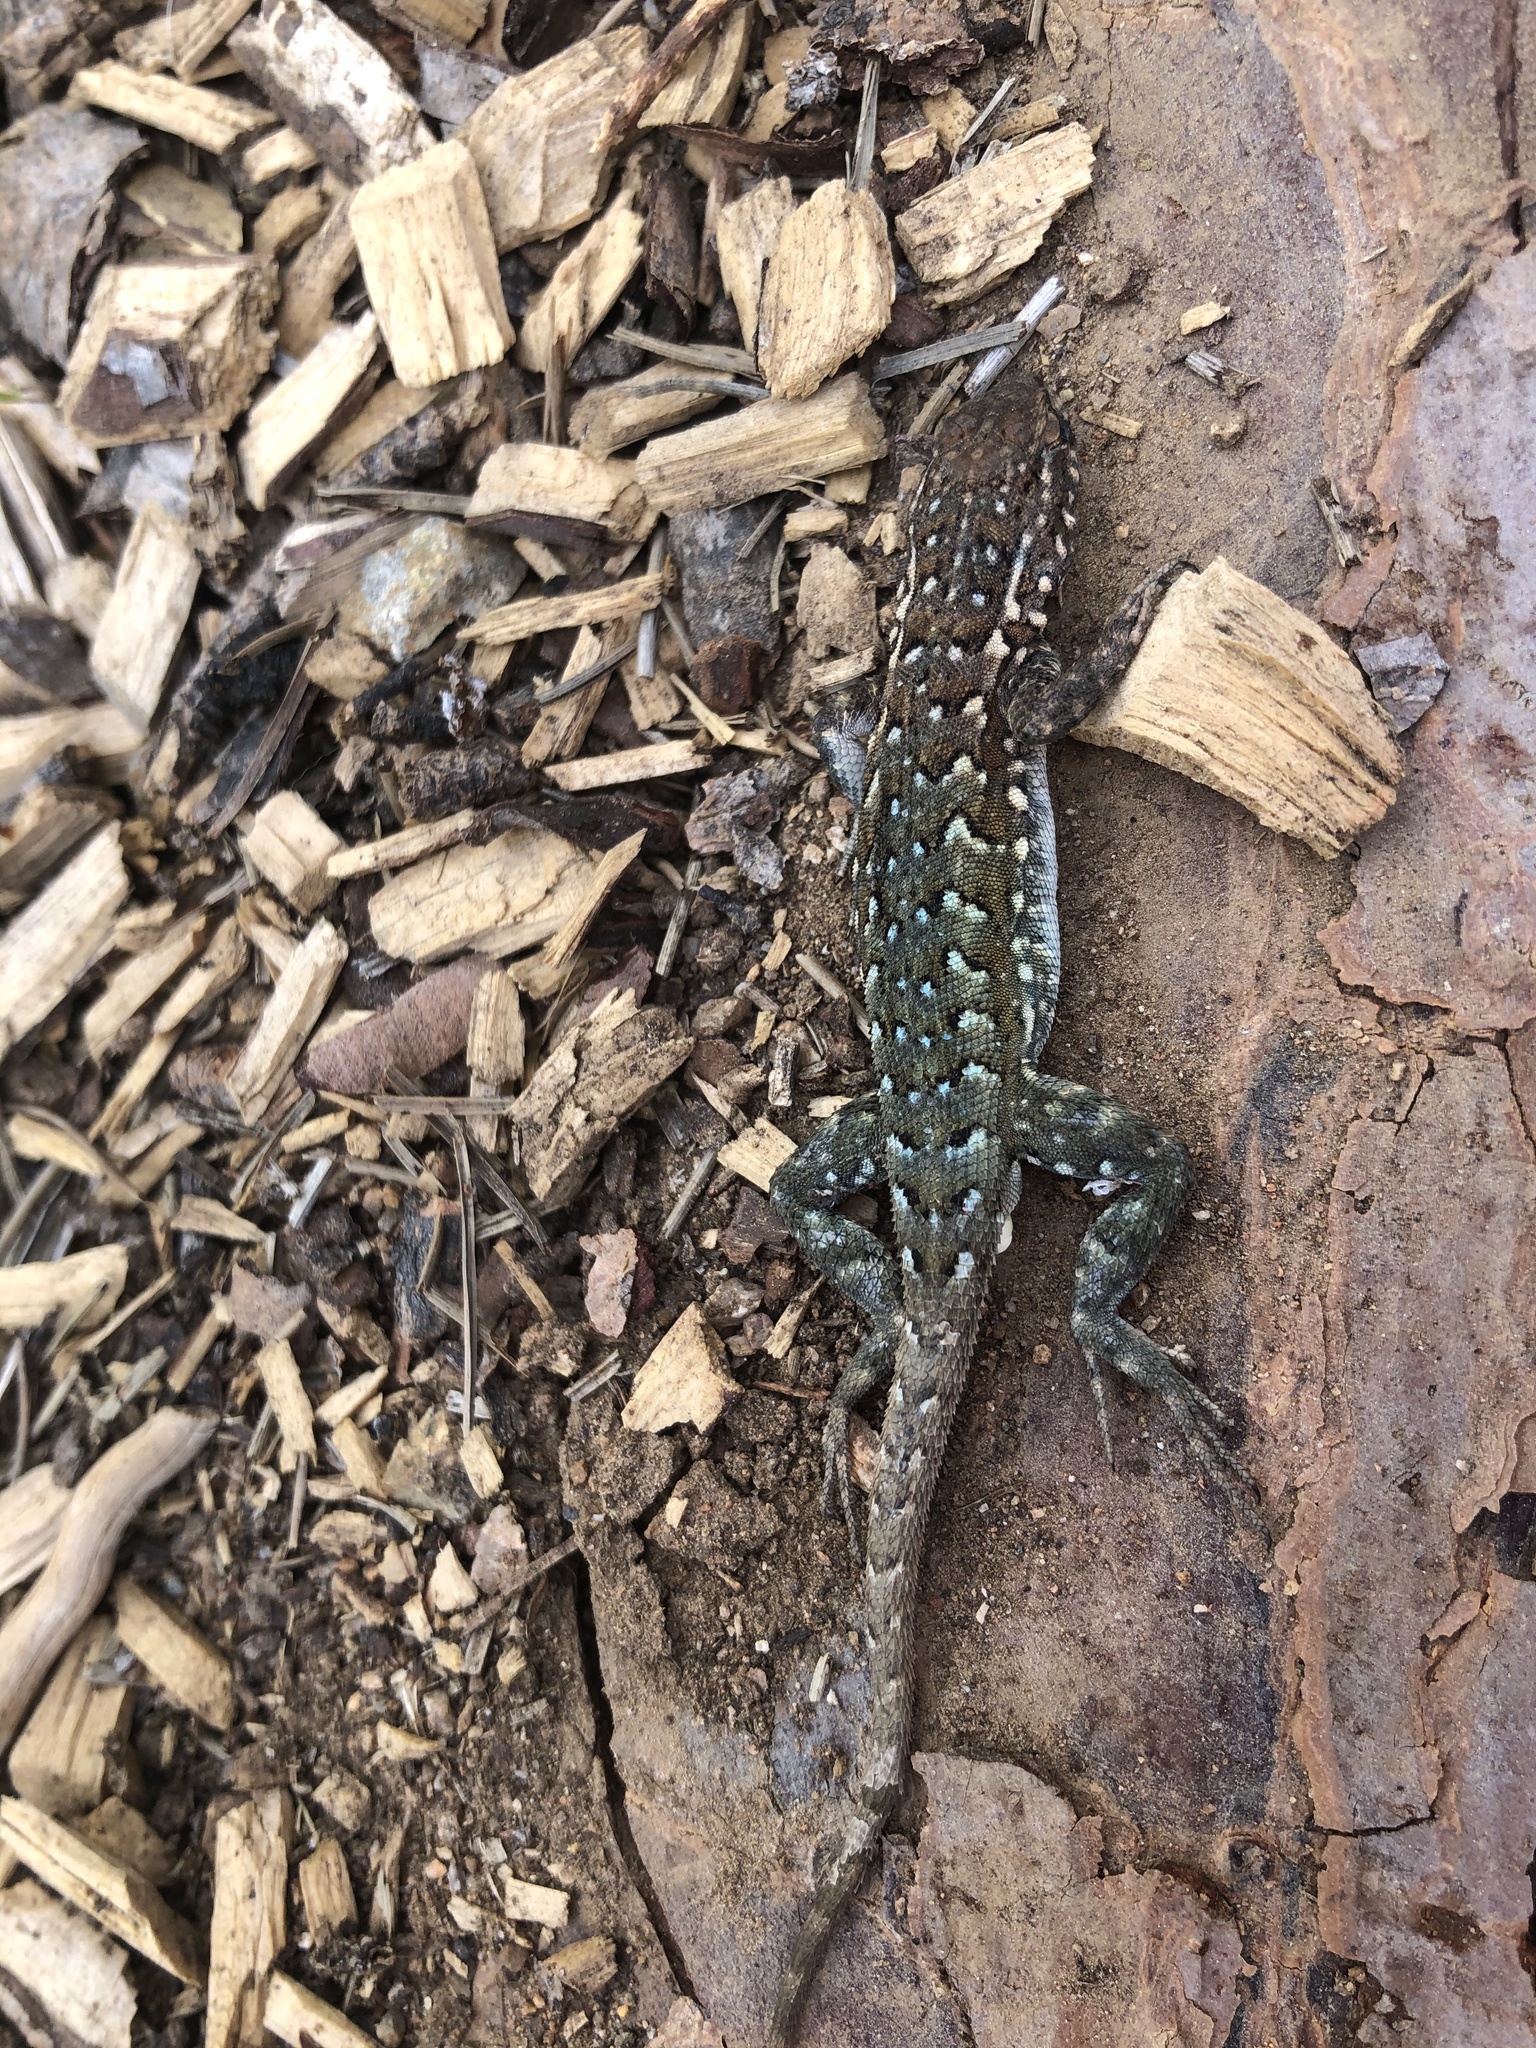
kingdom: Animalia
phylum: Chordata
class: Squamata
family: Phrynosomatidae
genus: Uta
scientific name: Uta stansburiana
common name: Side-blotched lizard
